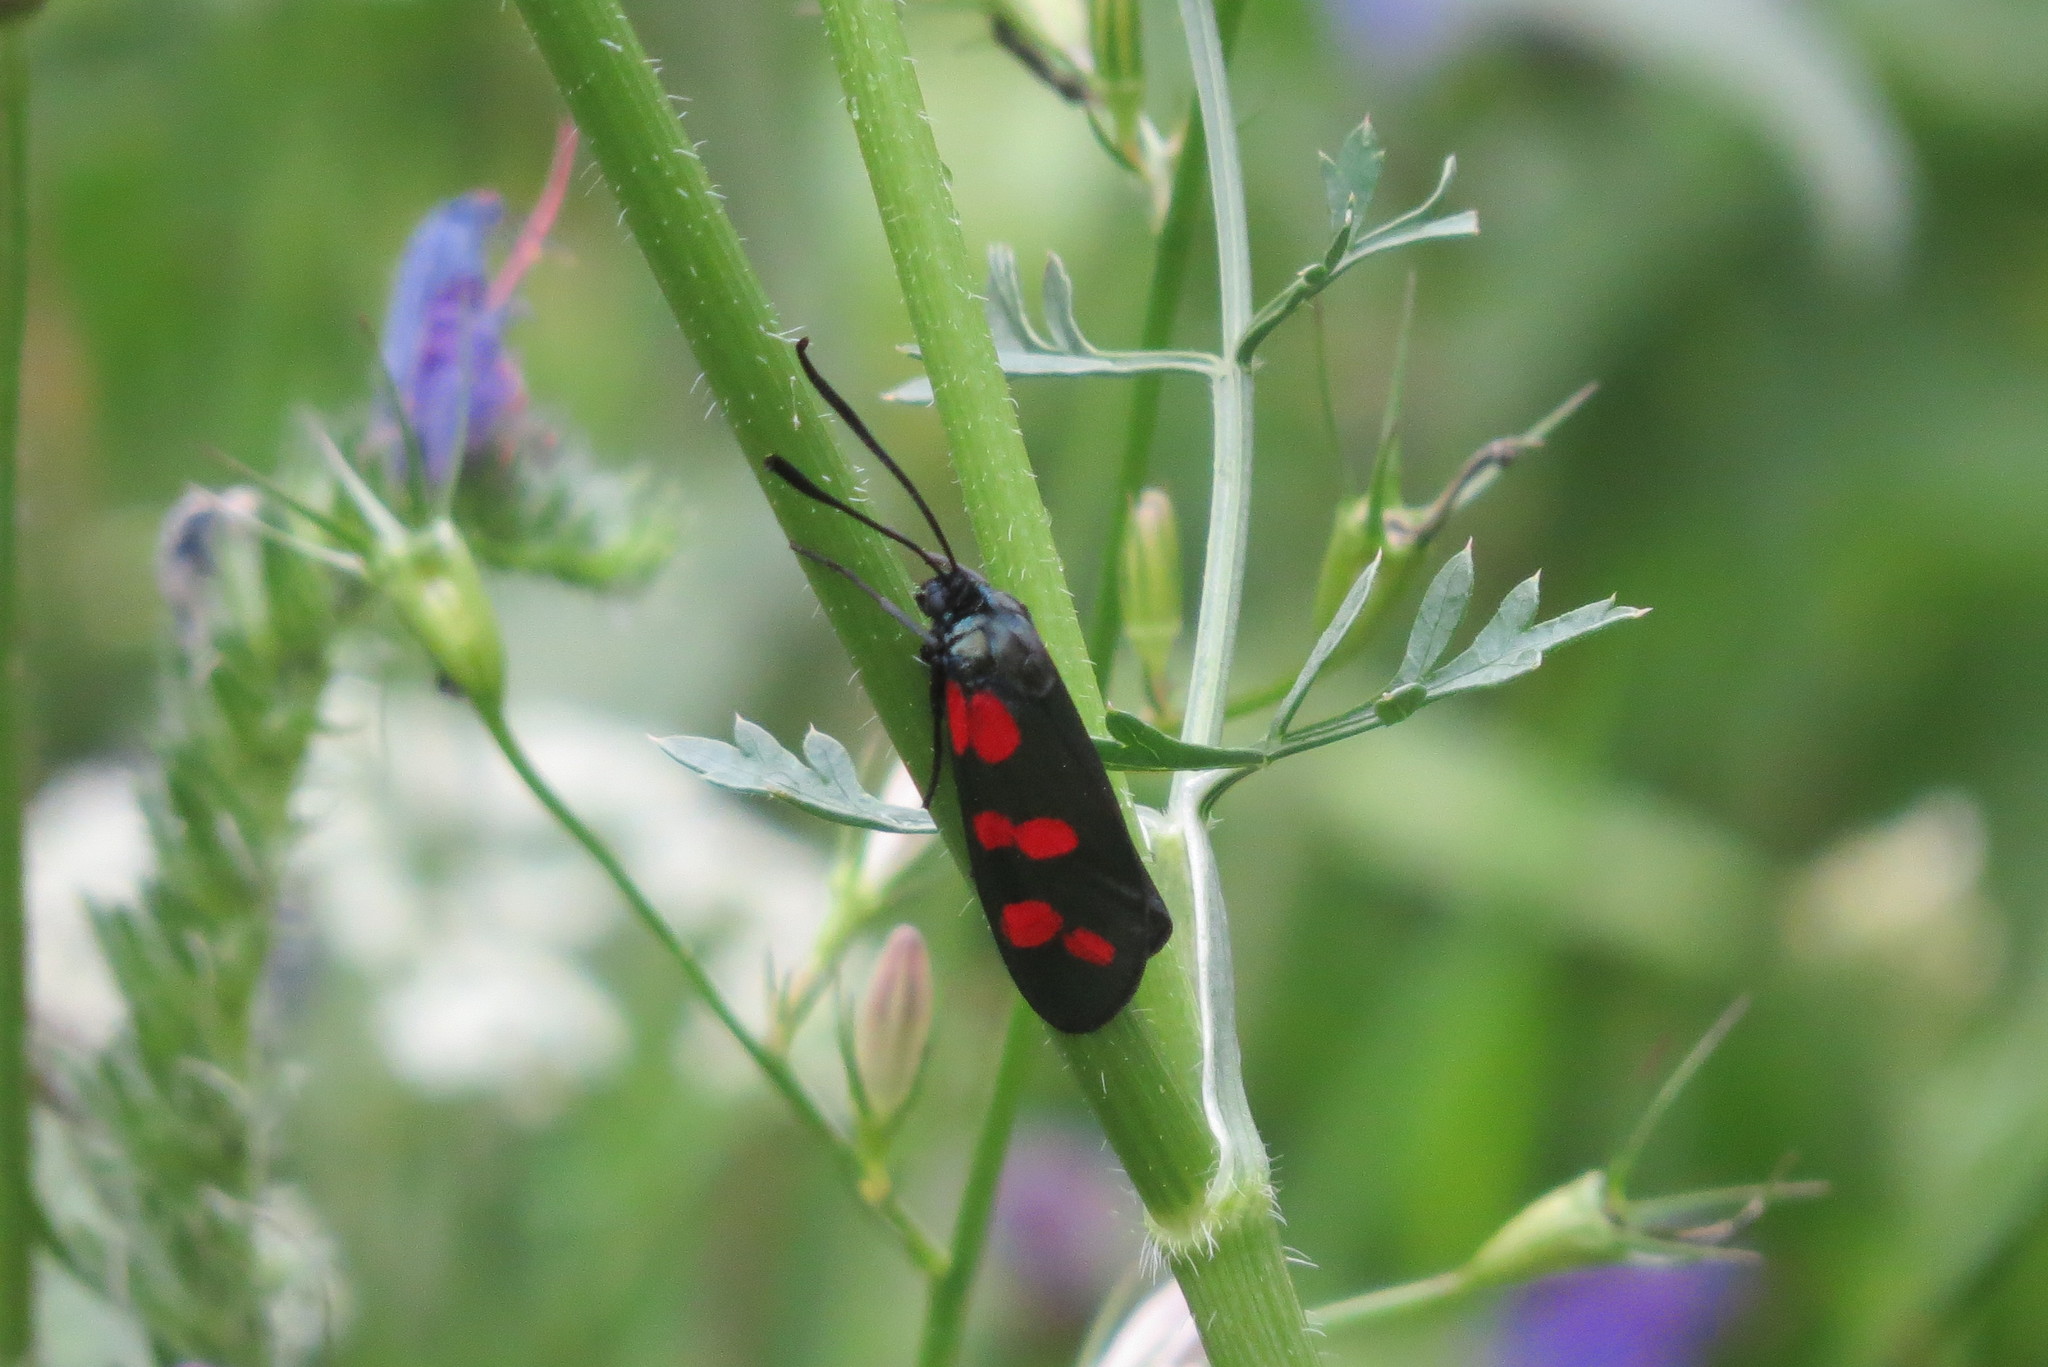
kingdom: Animalia
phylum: Arthropoda
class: Insecta
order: Lepidoptera
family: Zygaenidae
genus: Zygaena
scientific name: Zygaena filipendulae
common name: Six-spot burnet
